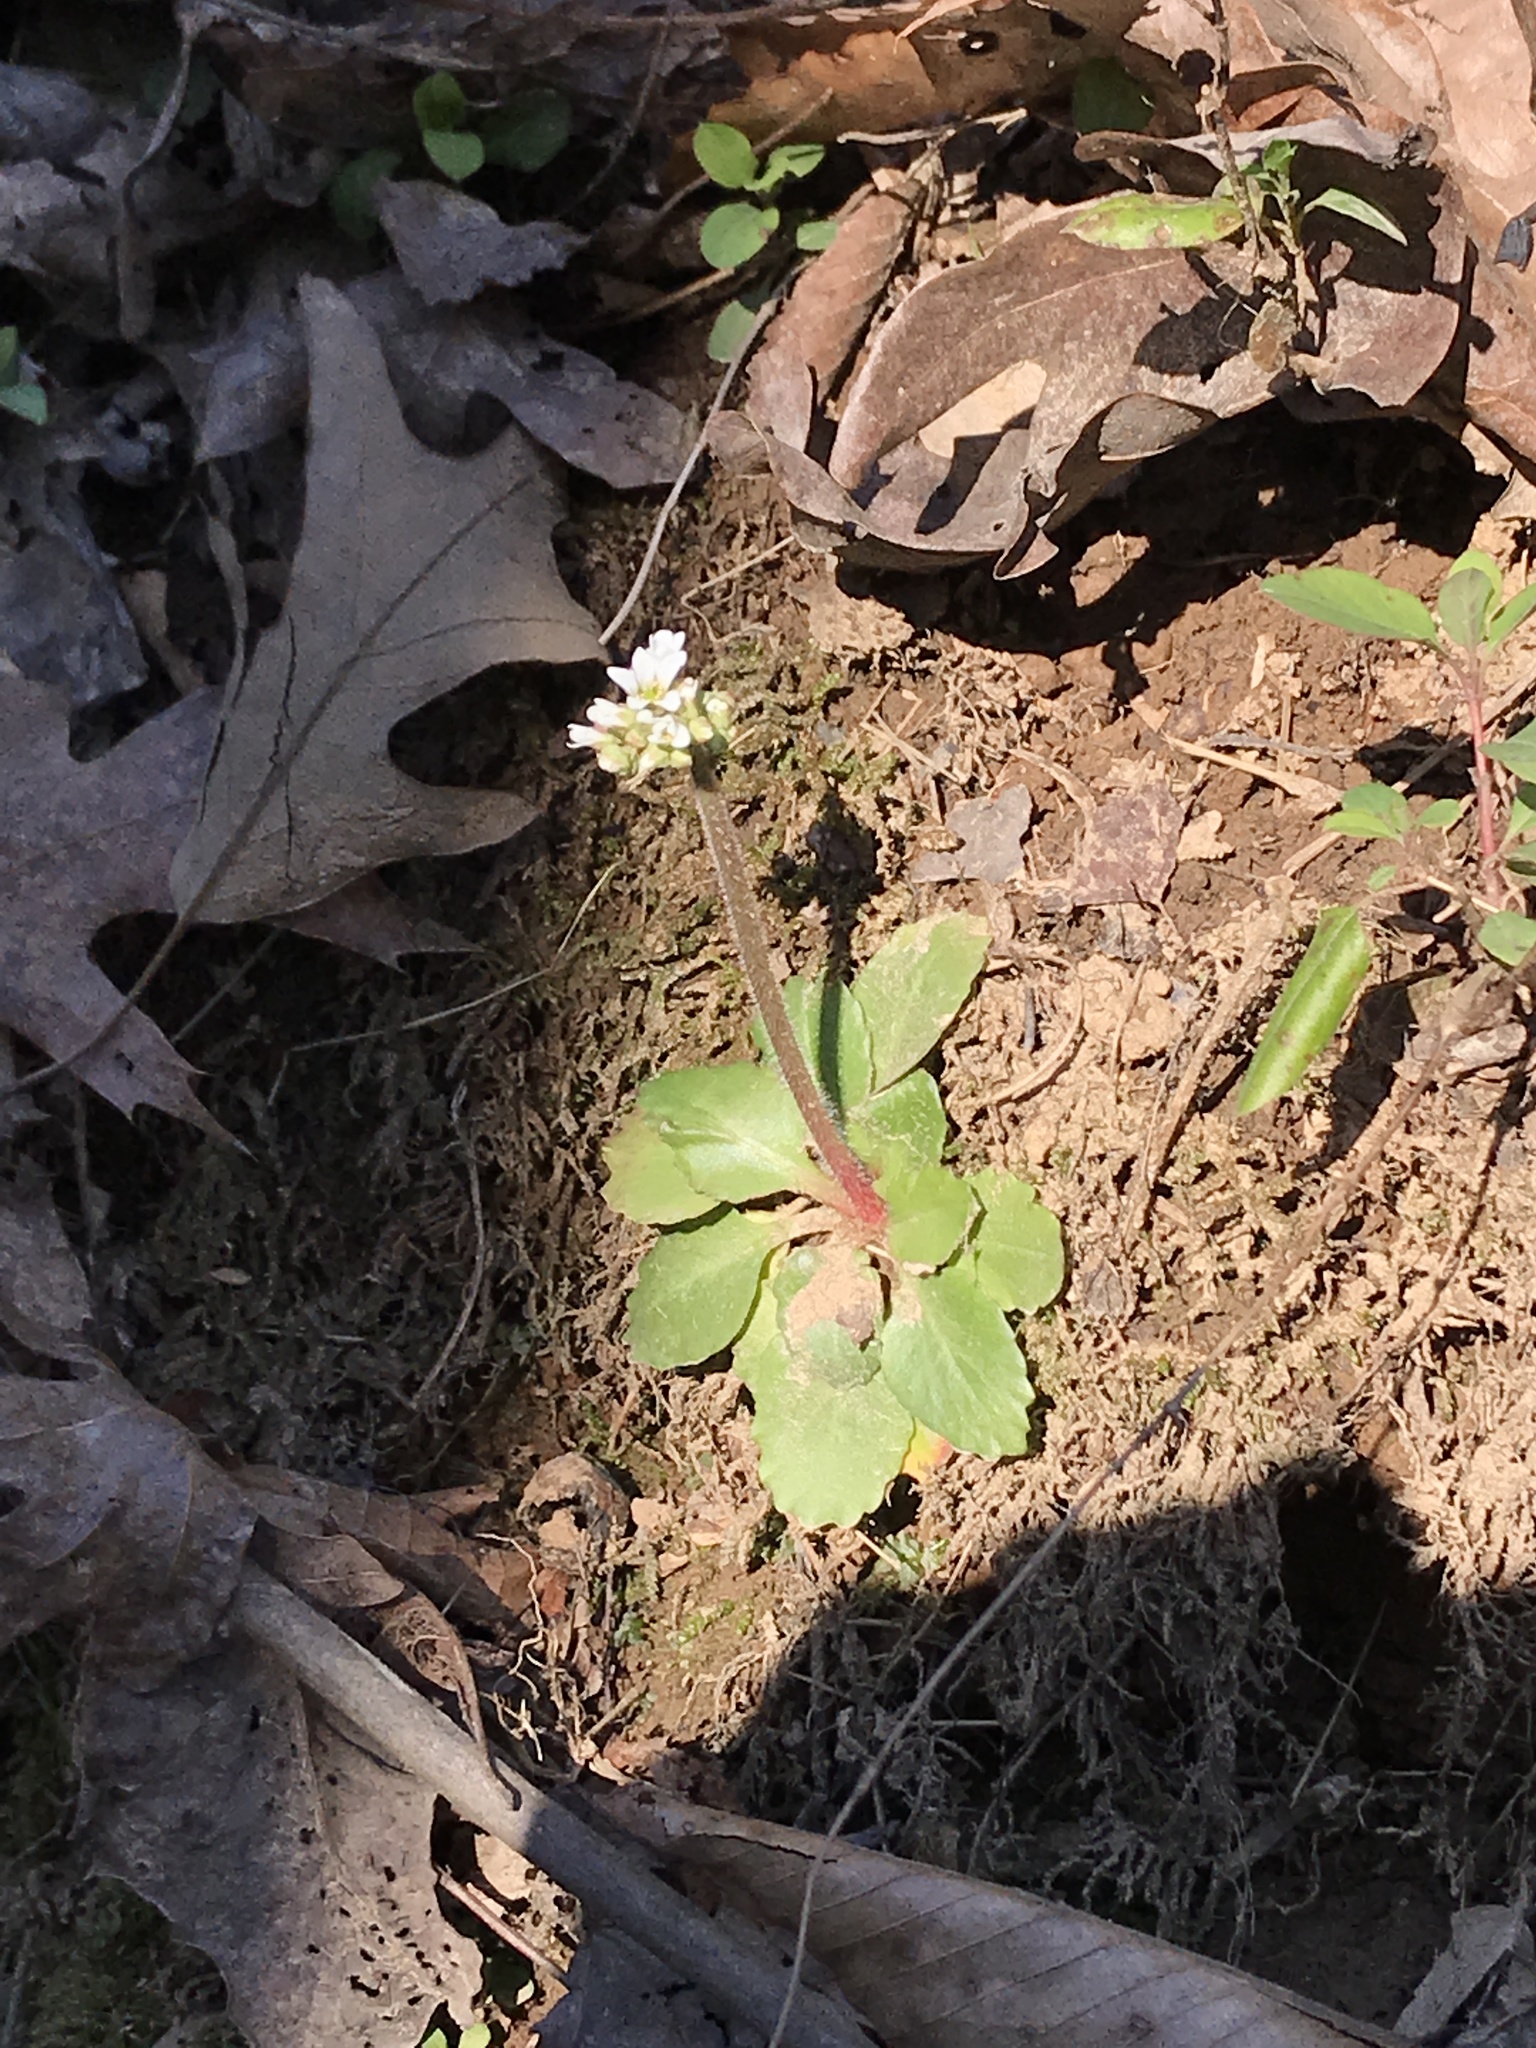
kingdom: Plantae
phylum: Tracheophyta
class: Magnoliopsida
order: Saxifragales
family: Saxifragaceae
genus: Micranthes
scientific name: Micranthes virginiensis
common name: Early saxifrage
